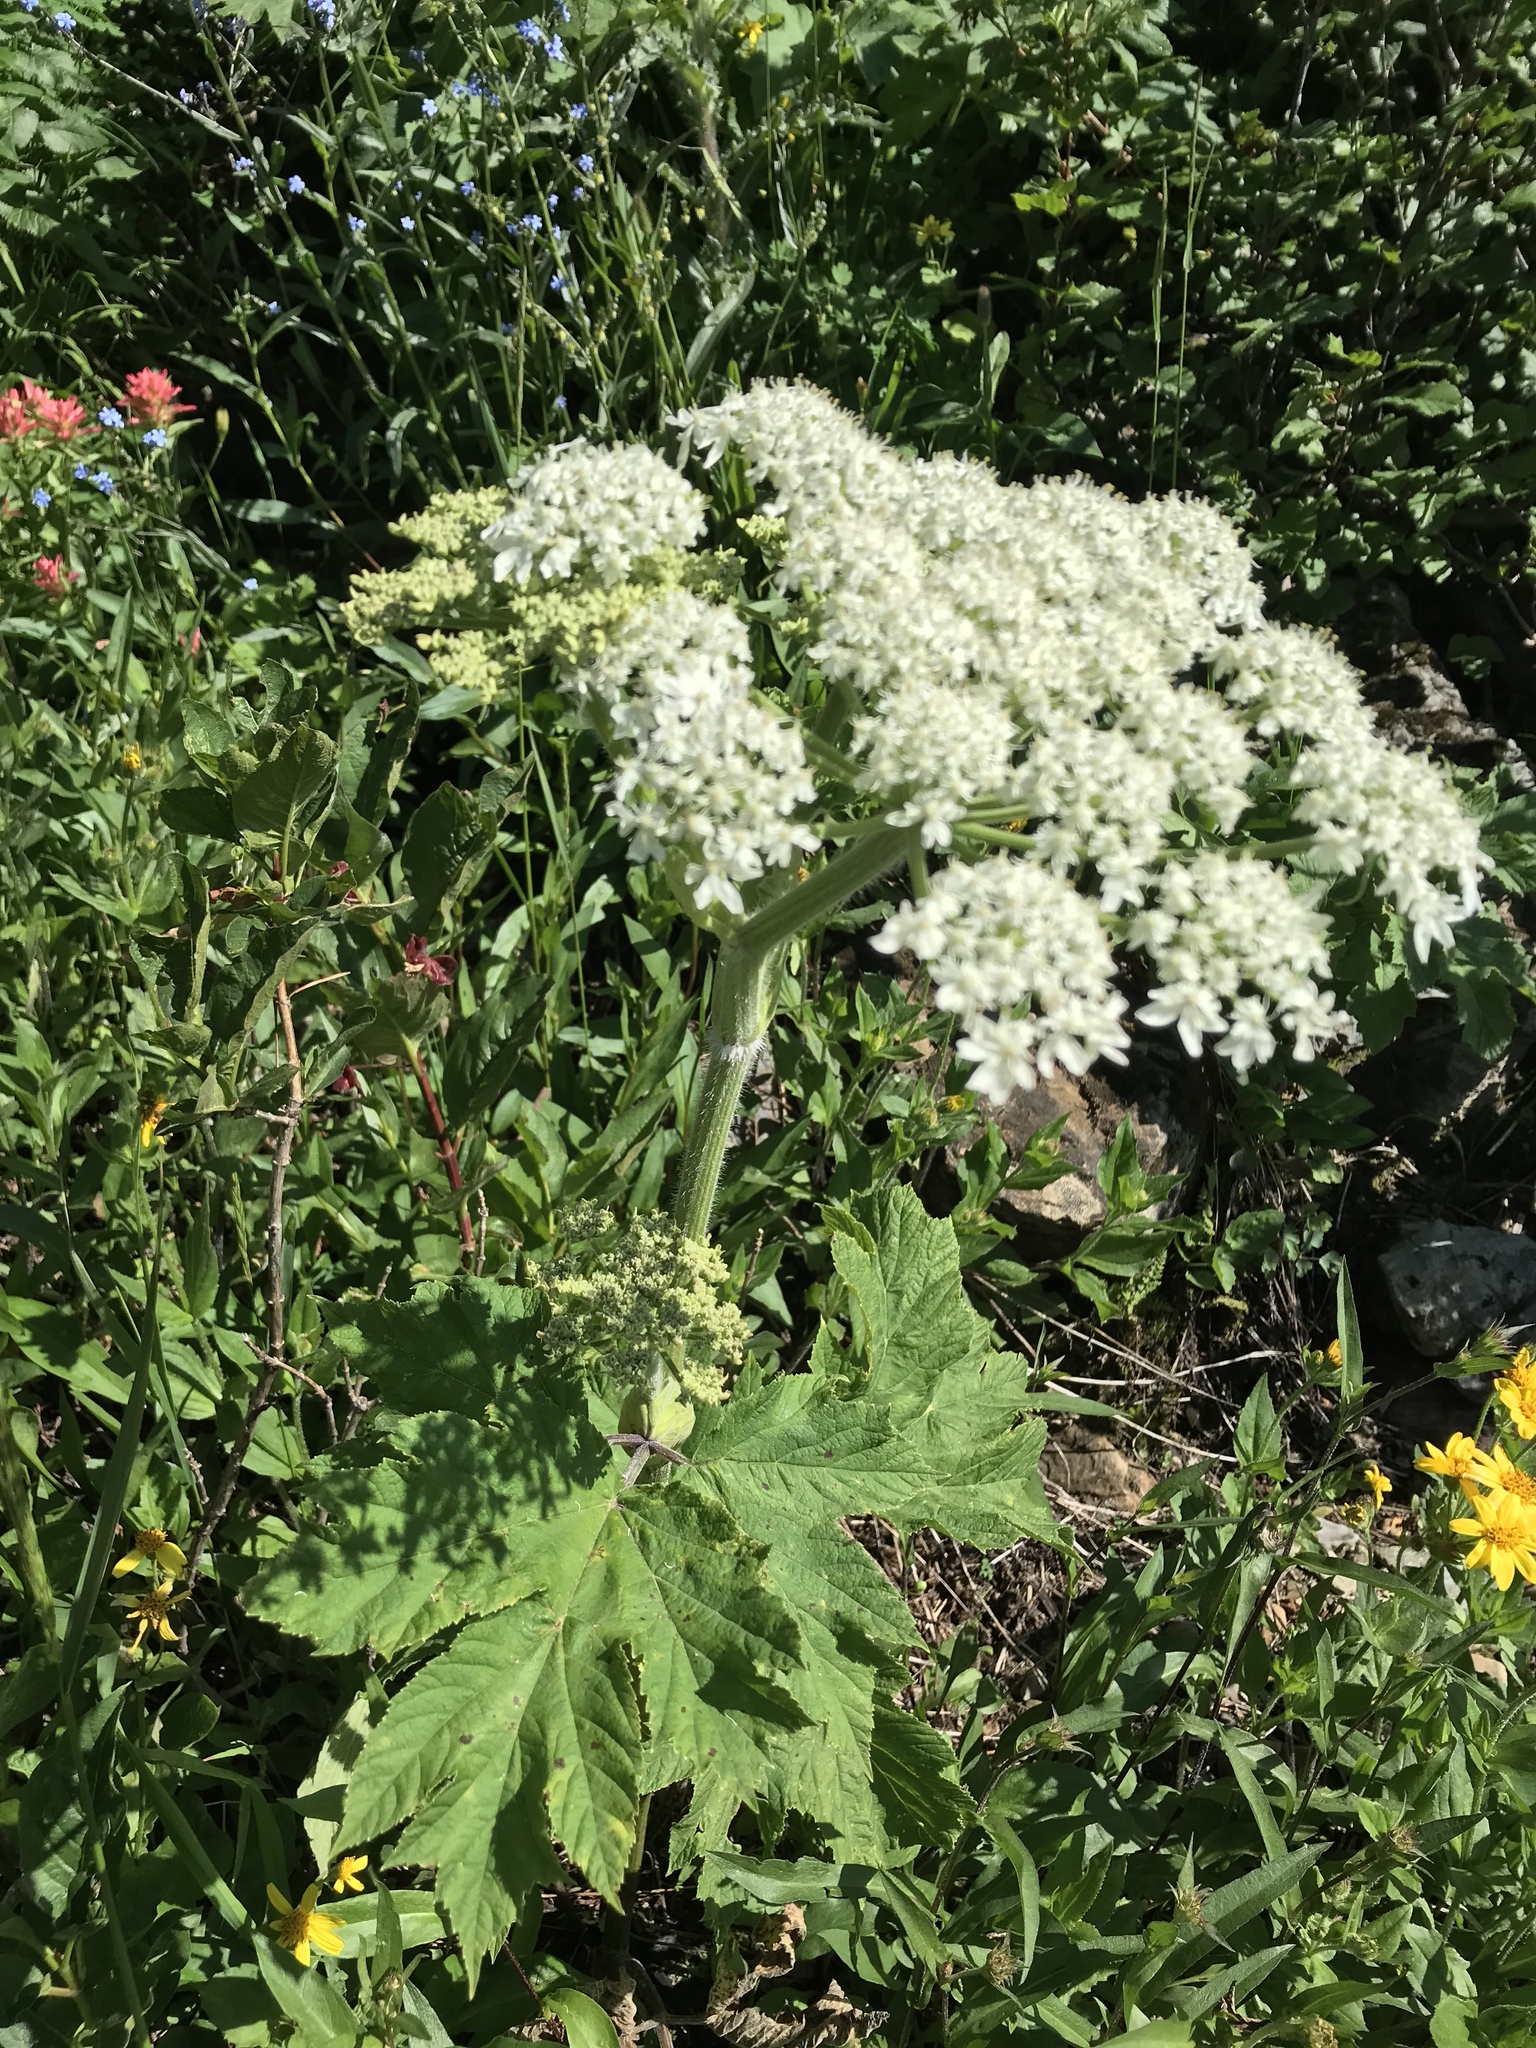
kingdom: Plantae
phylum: Tracheophyta
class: Magnoliopsida
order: Apiales
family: Apiaceae
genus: Heracleum
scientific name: Heracleum maximum
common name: American cow parsnip
